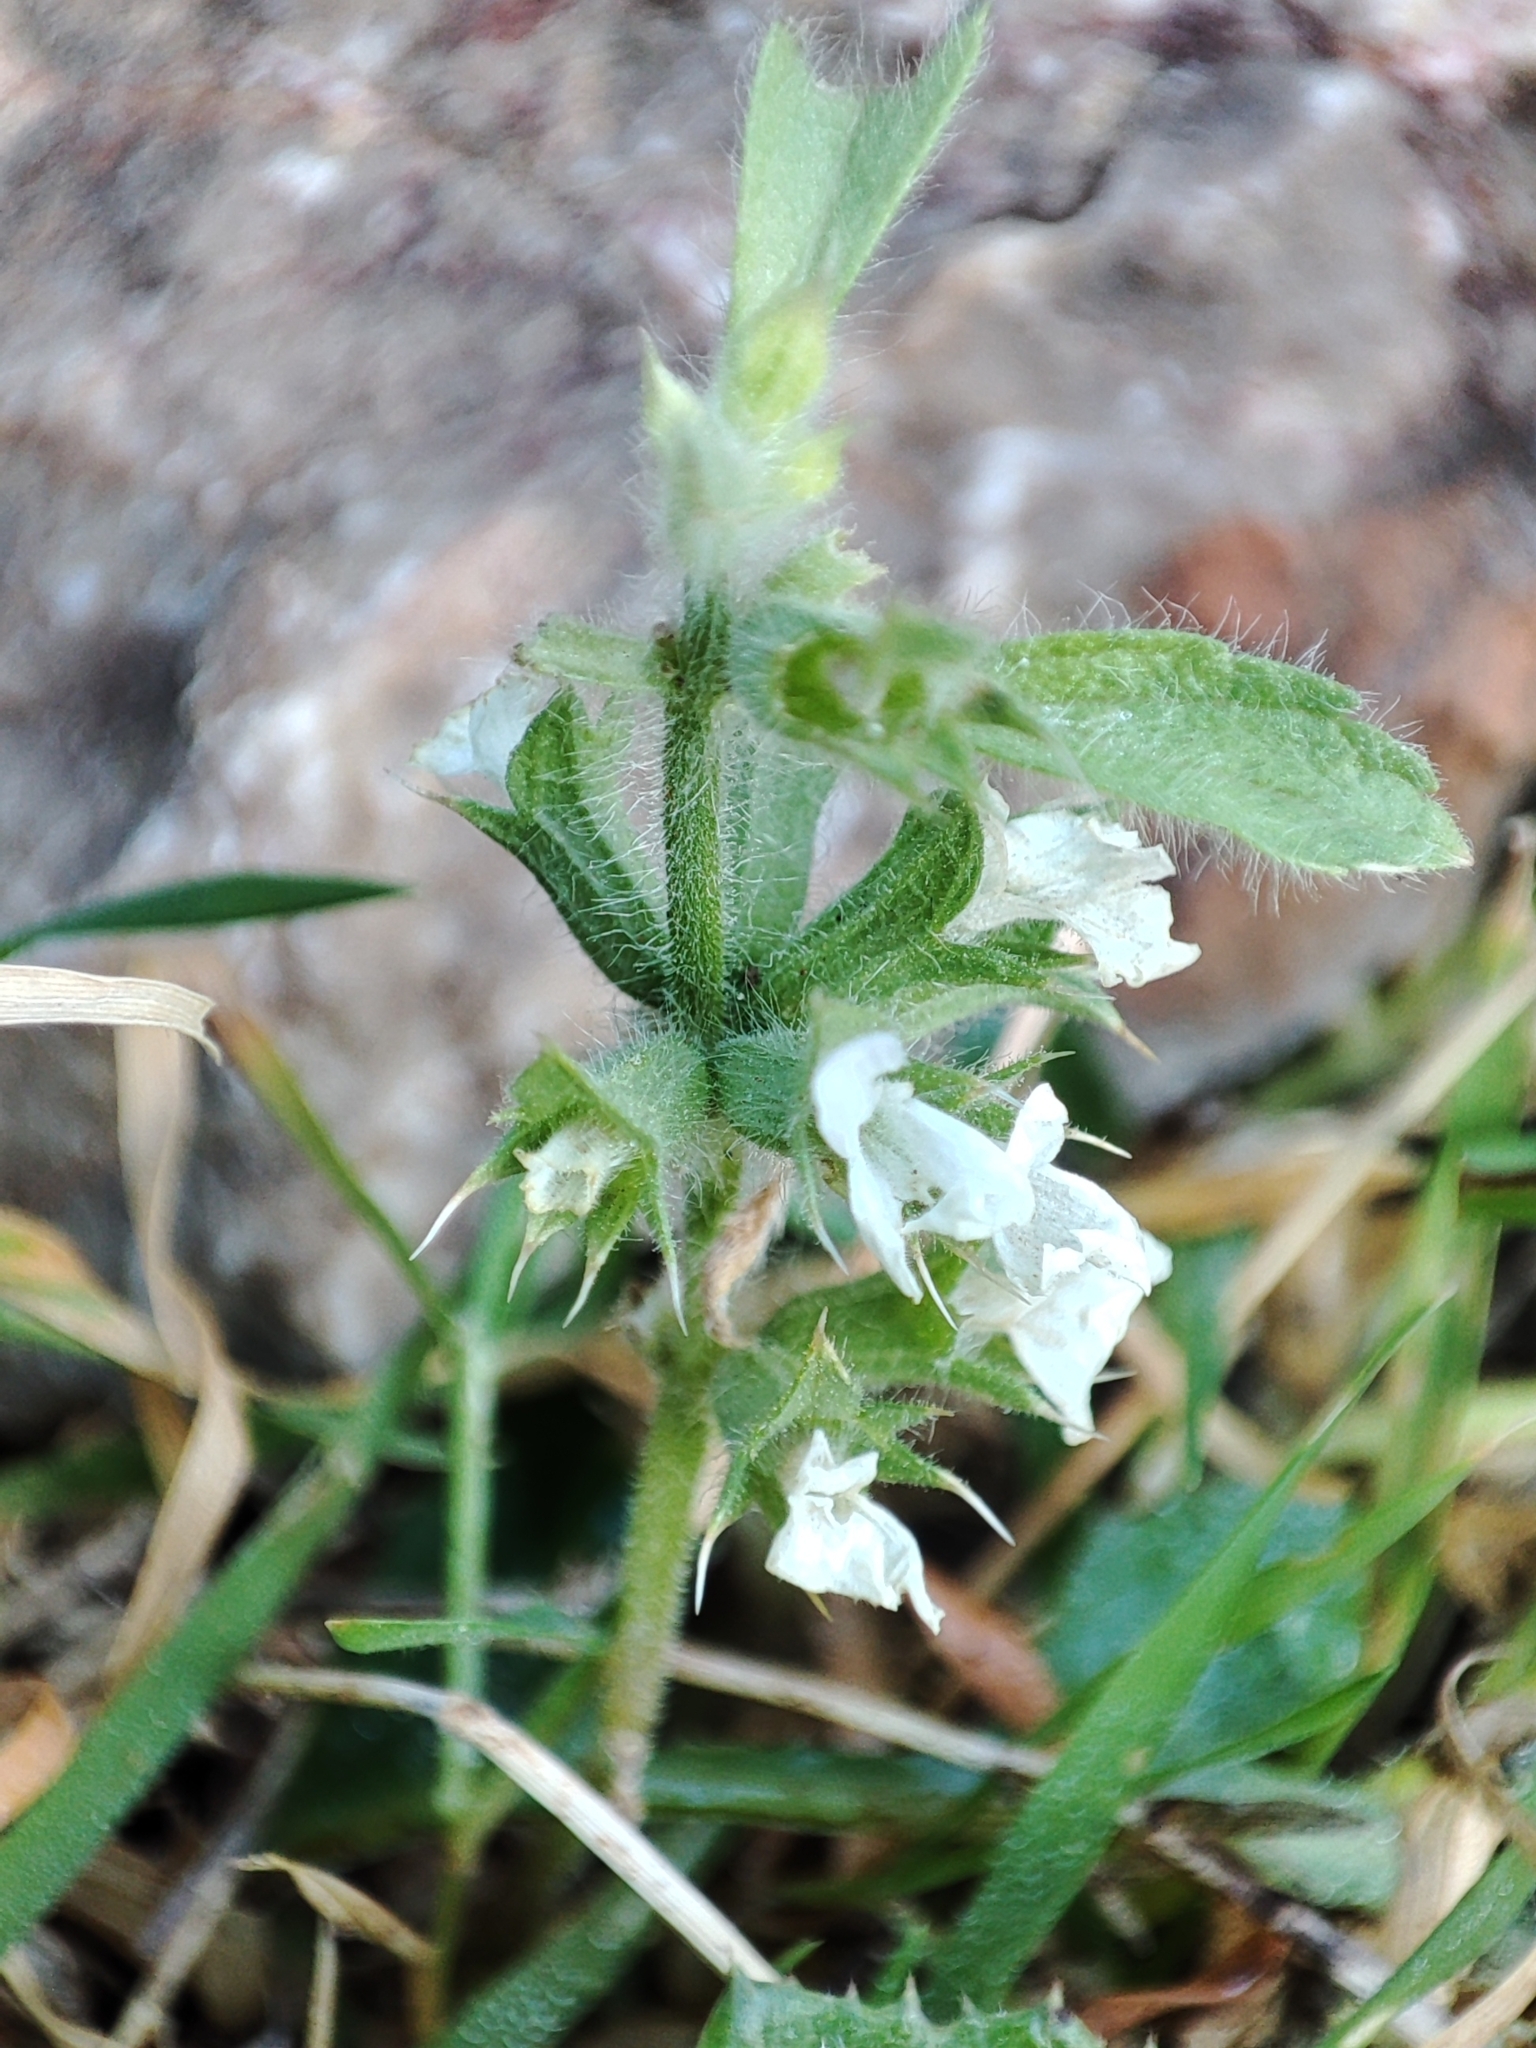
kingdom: Plantae
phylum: Tracheophyta
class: Magnoliopsida
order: Lamiales
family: Lamiaceae
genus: Sideritis
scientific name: Sideritis romana
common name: Simplebeak ironwort
